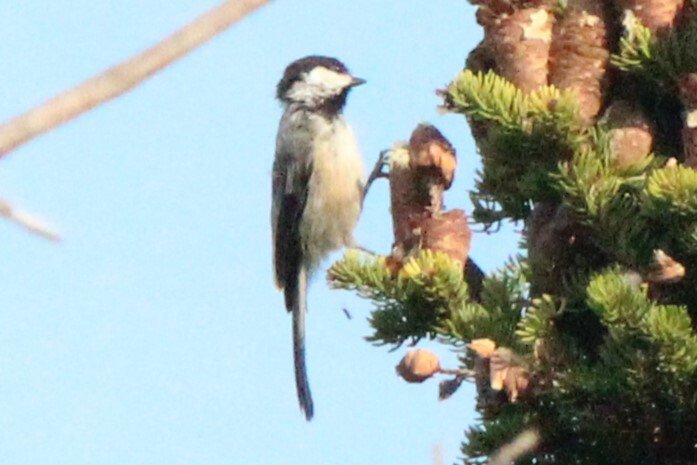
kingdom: Animalia
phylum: Chordata
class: Aves
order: Passeriformes
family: Paridae
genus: Poecile
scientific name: Poecile atricapillus
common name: Black-capped chickadee
